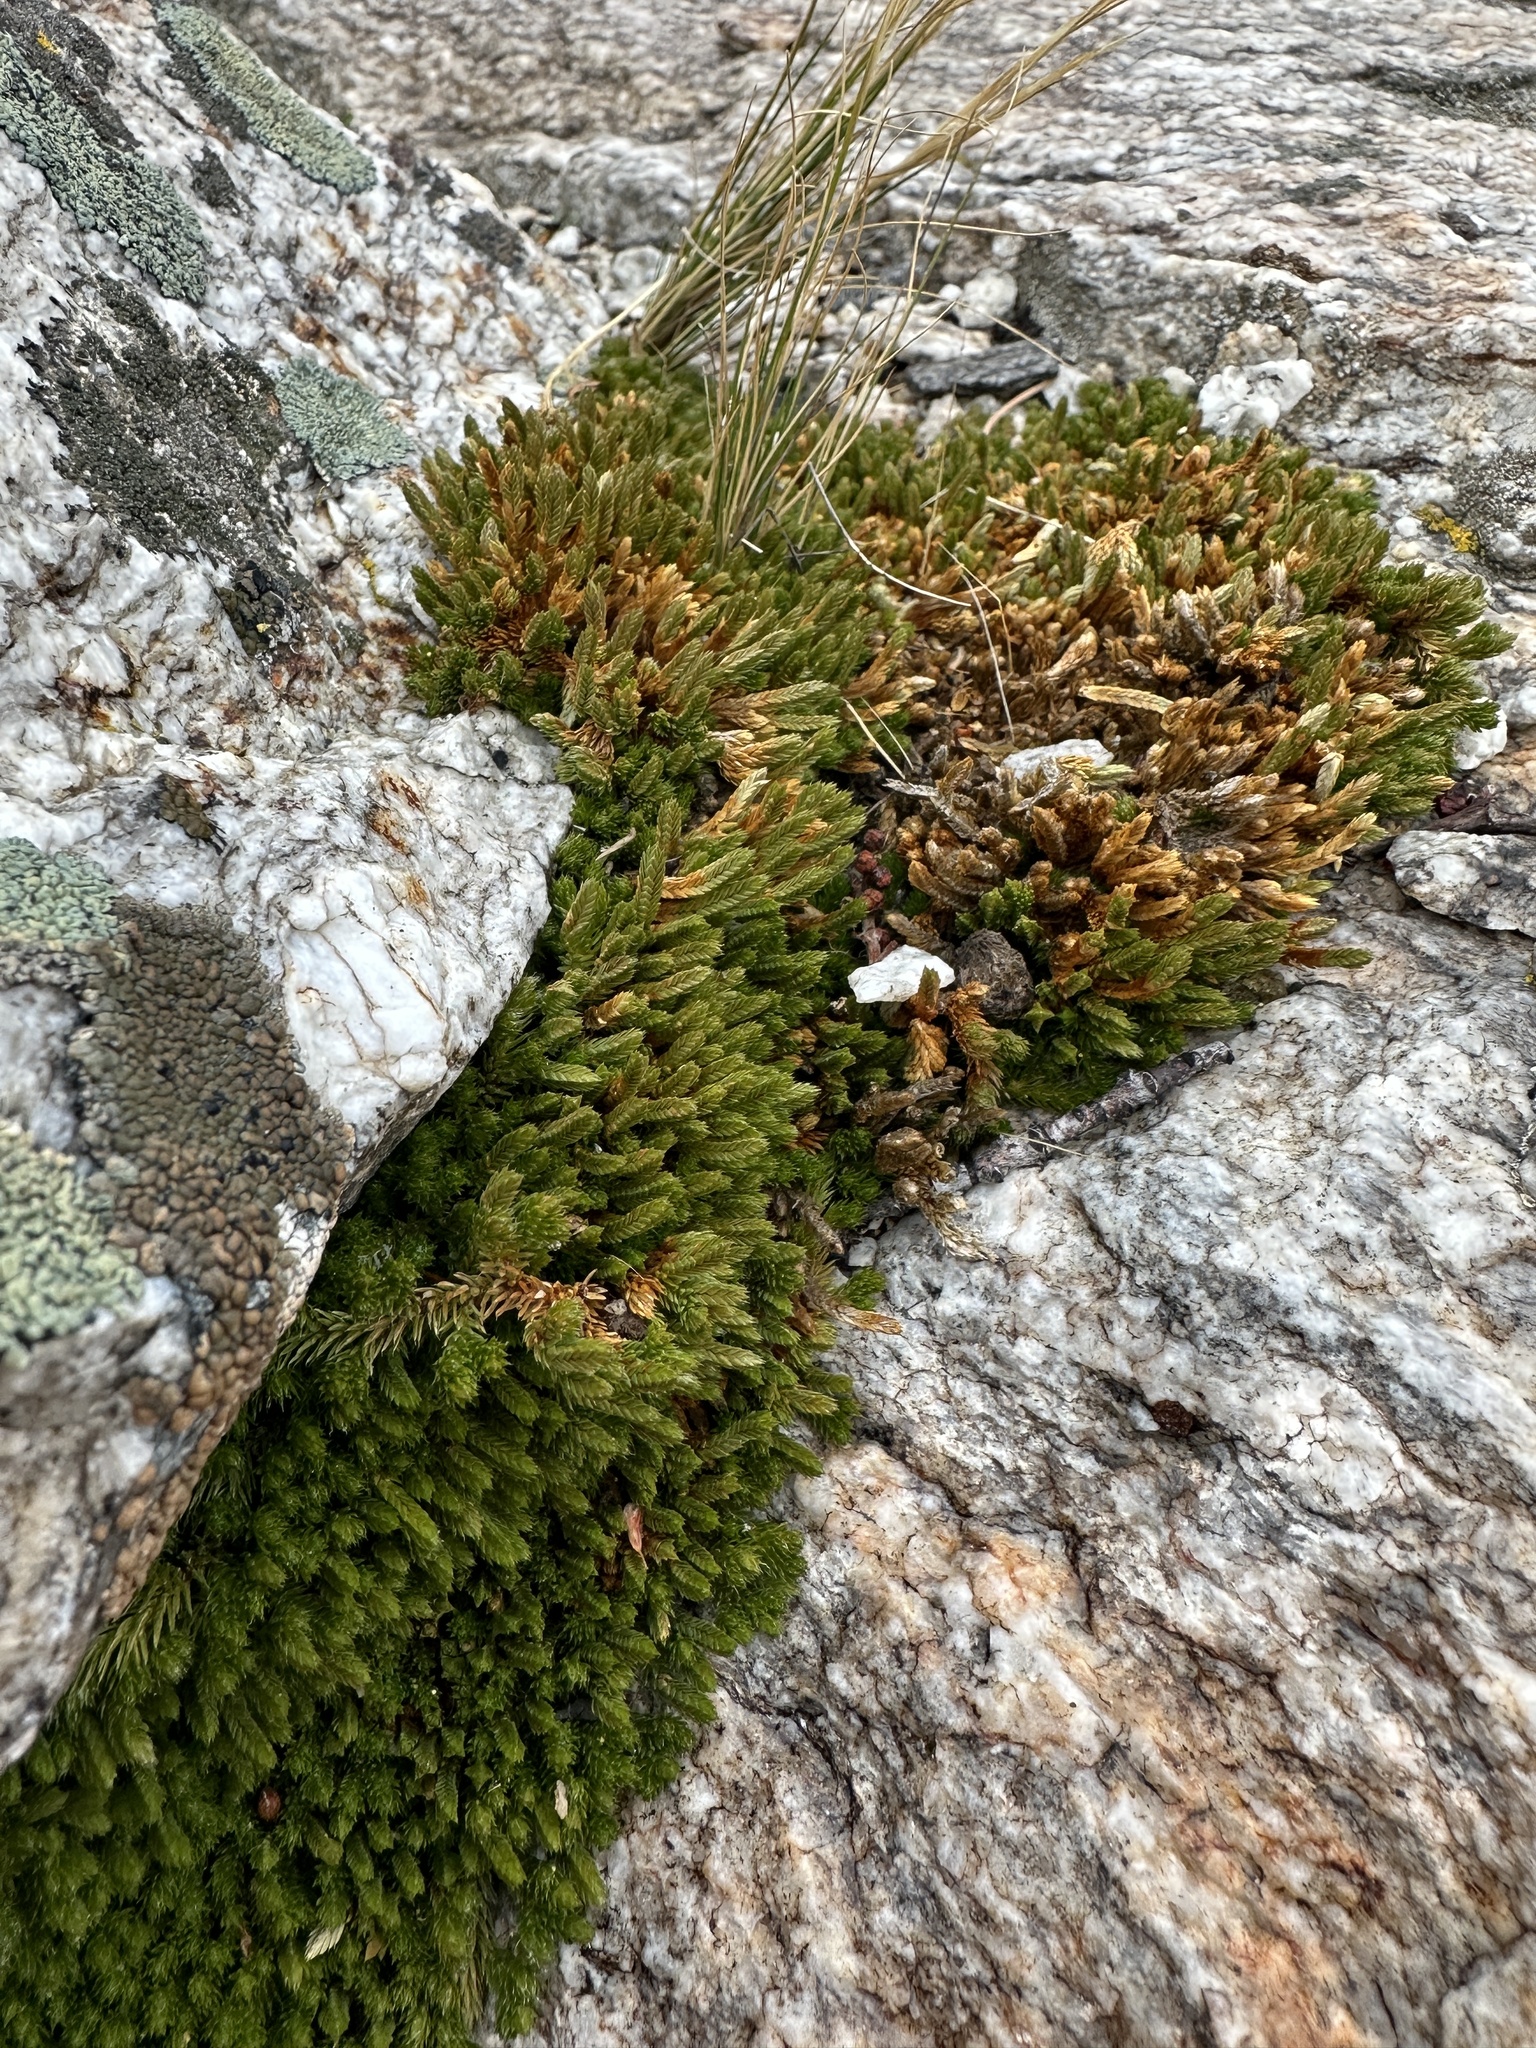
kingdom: Plantae
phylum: Tracheophyta
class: Lycopodiopsida
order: Selaginellales
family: Selaginellaceae
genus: Selaginella
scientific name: Selaginella watsonii
